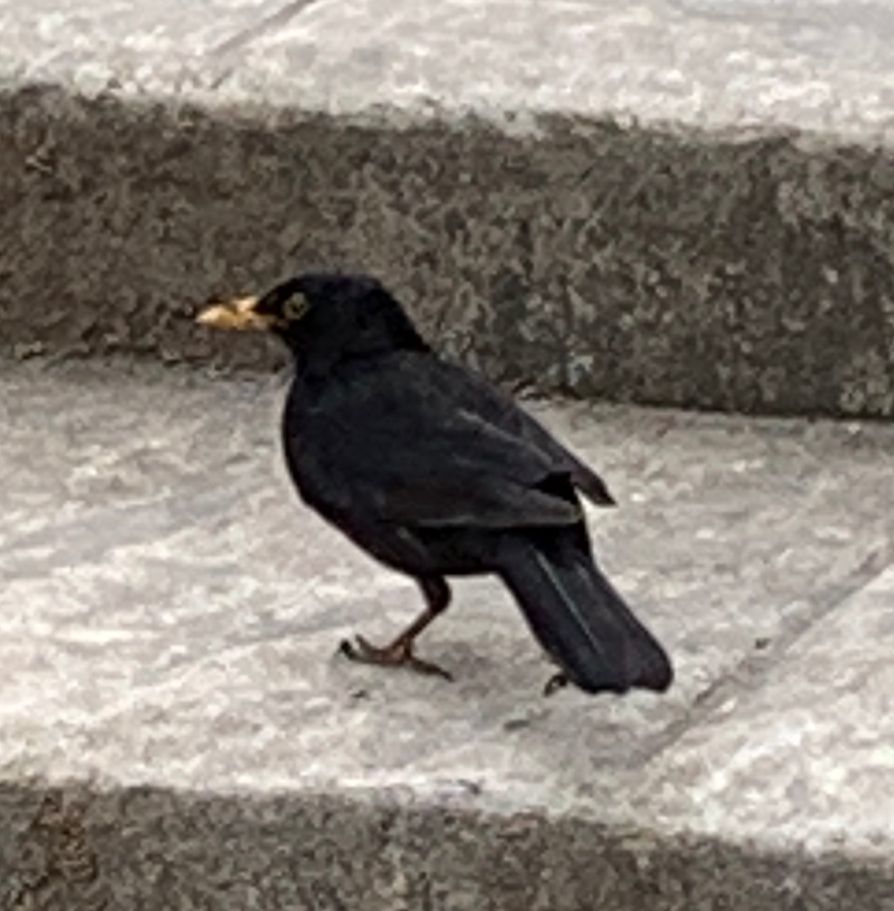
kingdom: Animalia
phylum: Chordata
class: Aves
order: Passeriformes
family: Turdidae
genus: Turdus
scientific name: Turdus merula
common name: Common blackbird
